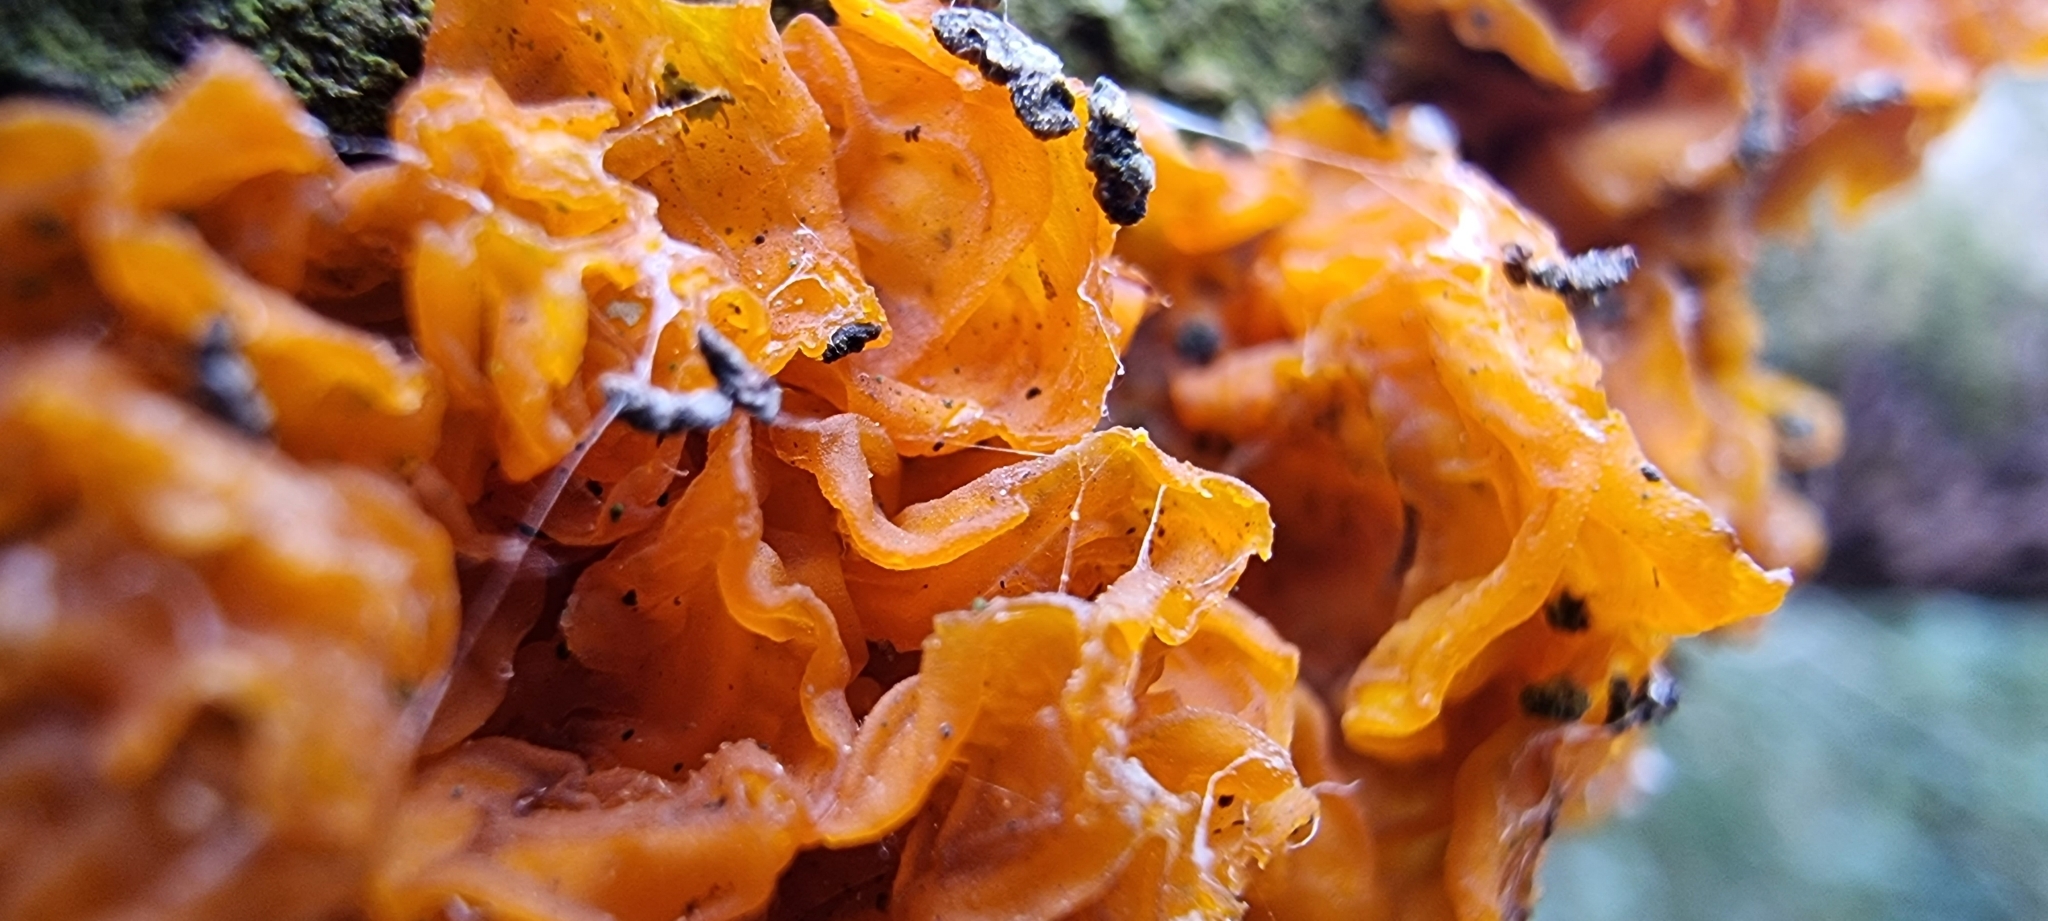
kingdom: Fungi
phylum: Basidiomycota
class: Tremellomycetes
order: Tremellales
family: Tremellaceae
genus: Tremella
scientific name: Tremella mesenterica
